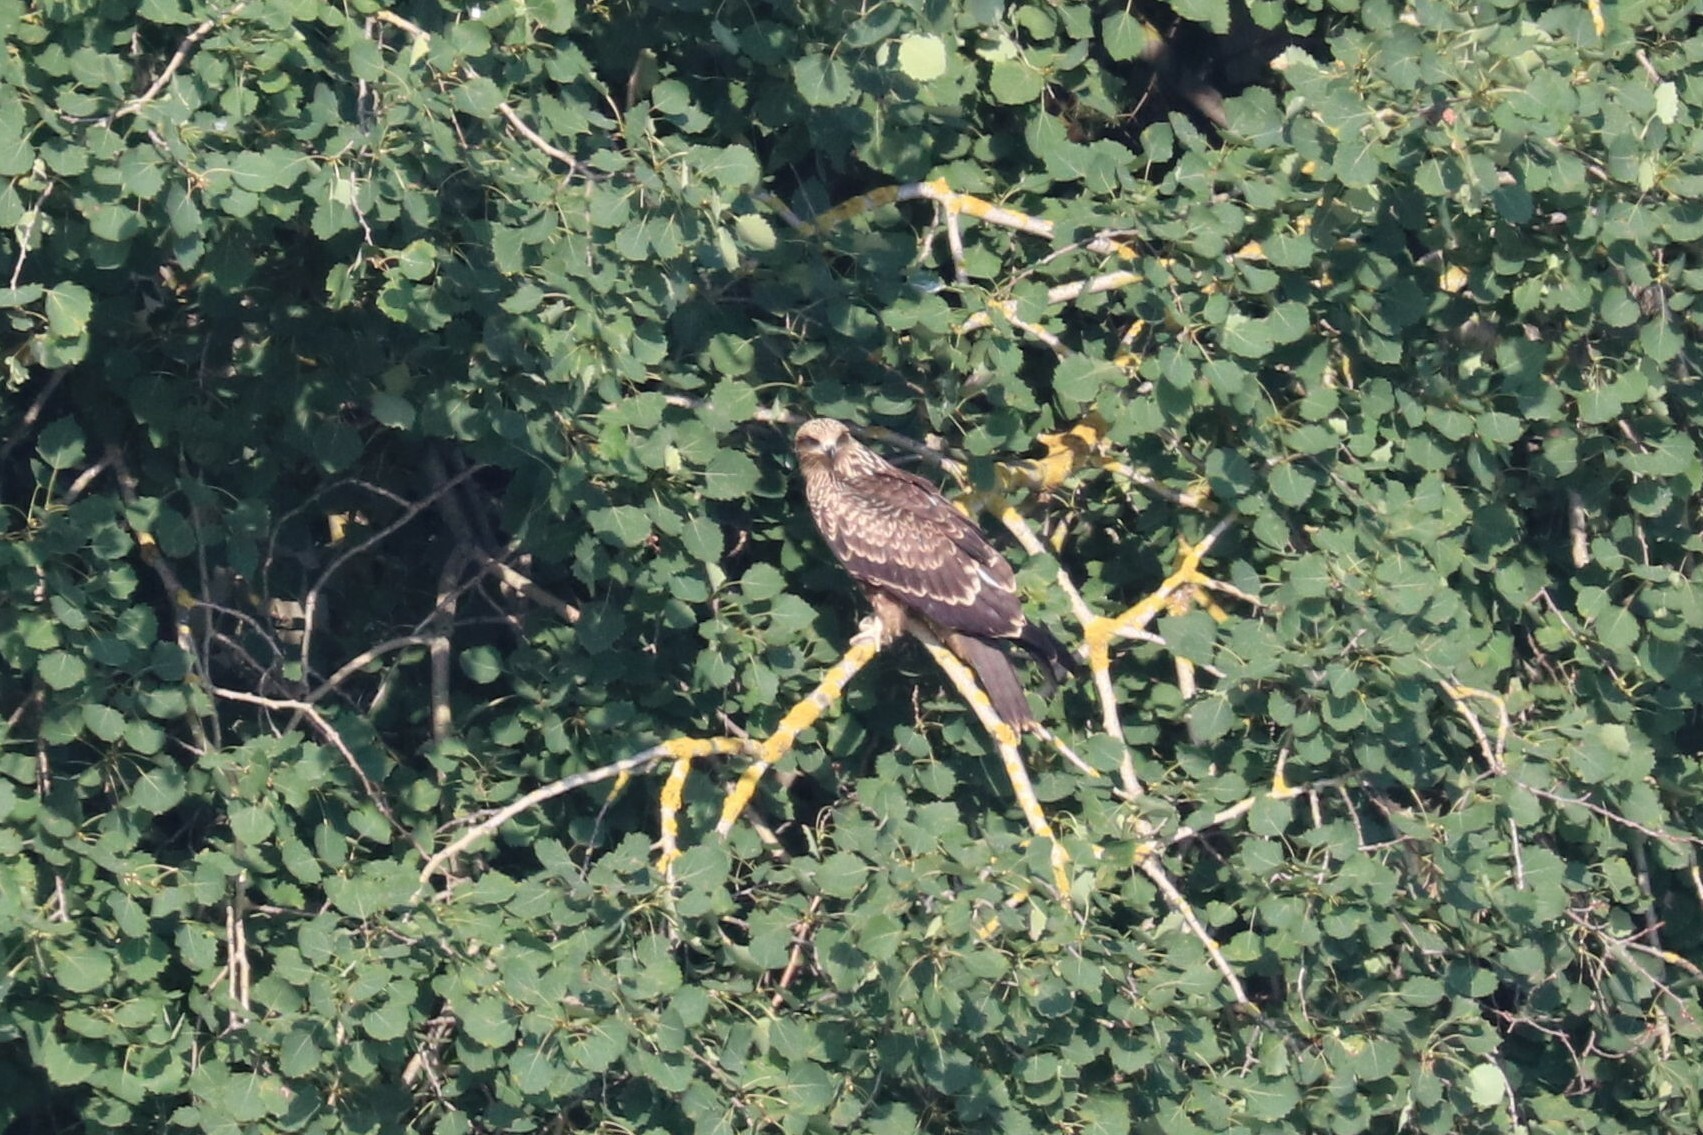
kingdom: Animalia
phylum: Chordata
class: Aves
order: Accipitriformes
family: Accipitridae
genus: Milvus
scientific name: Milvus migrans
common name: Black kite
